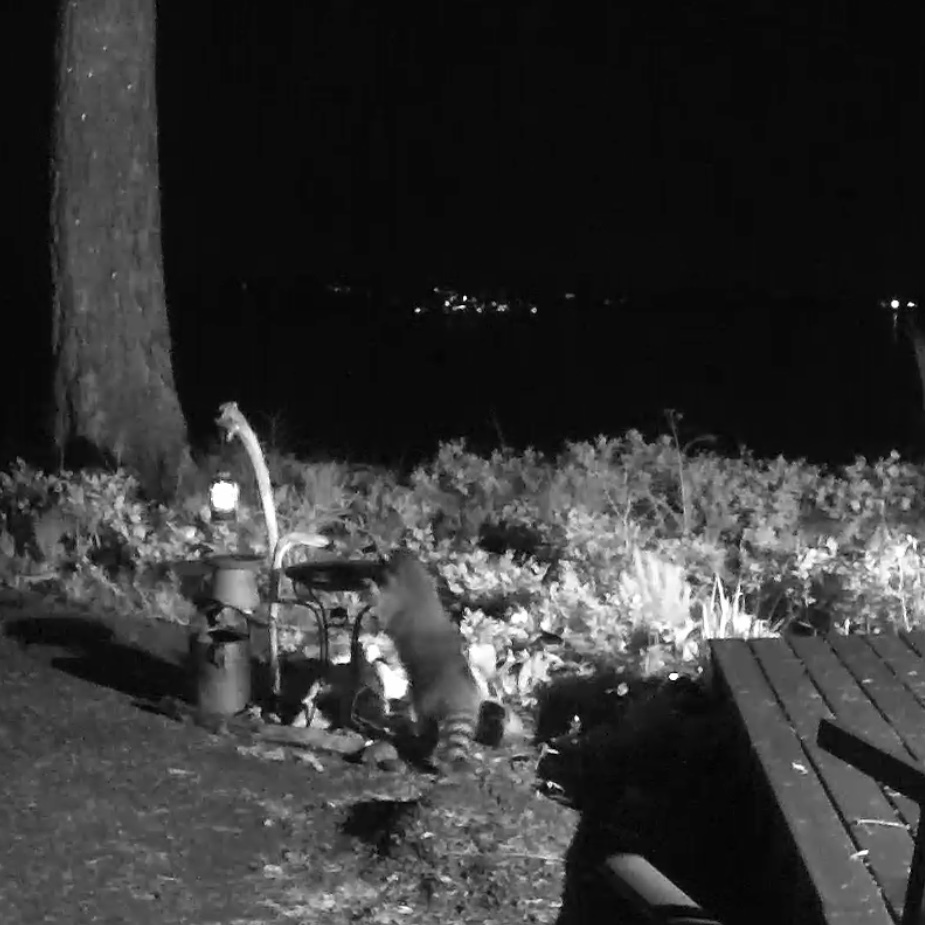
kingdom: Animalia
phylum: Chordata
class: Mammalia
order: Carnivora
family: Procyonidae
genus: Procyon
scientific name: Procyon lotor
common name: Raccoon
